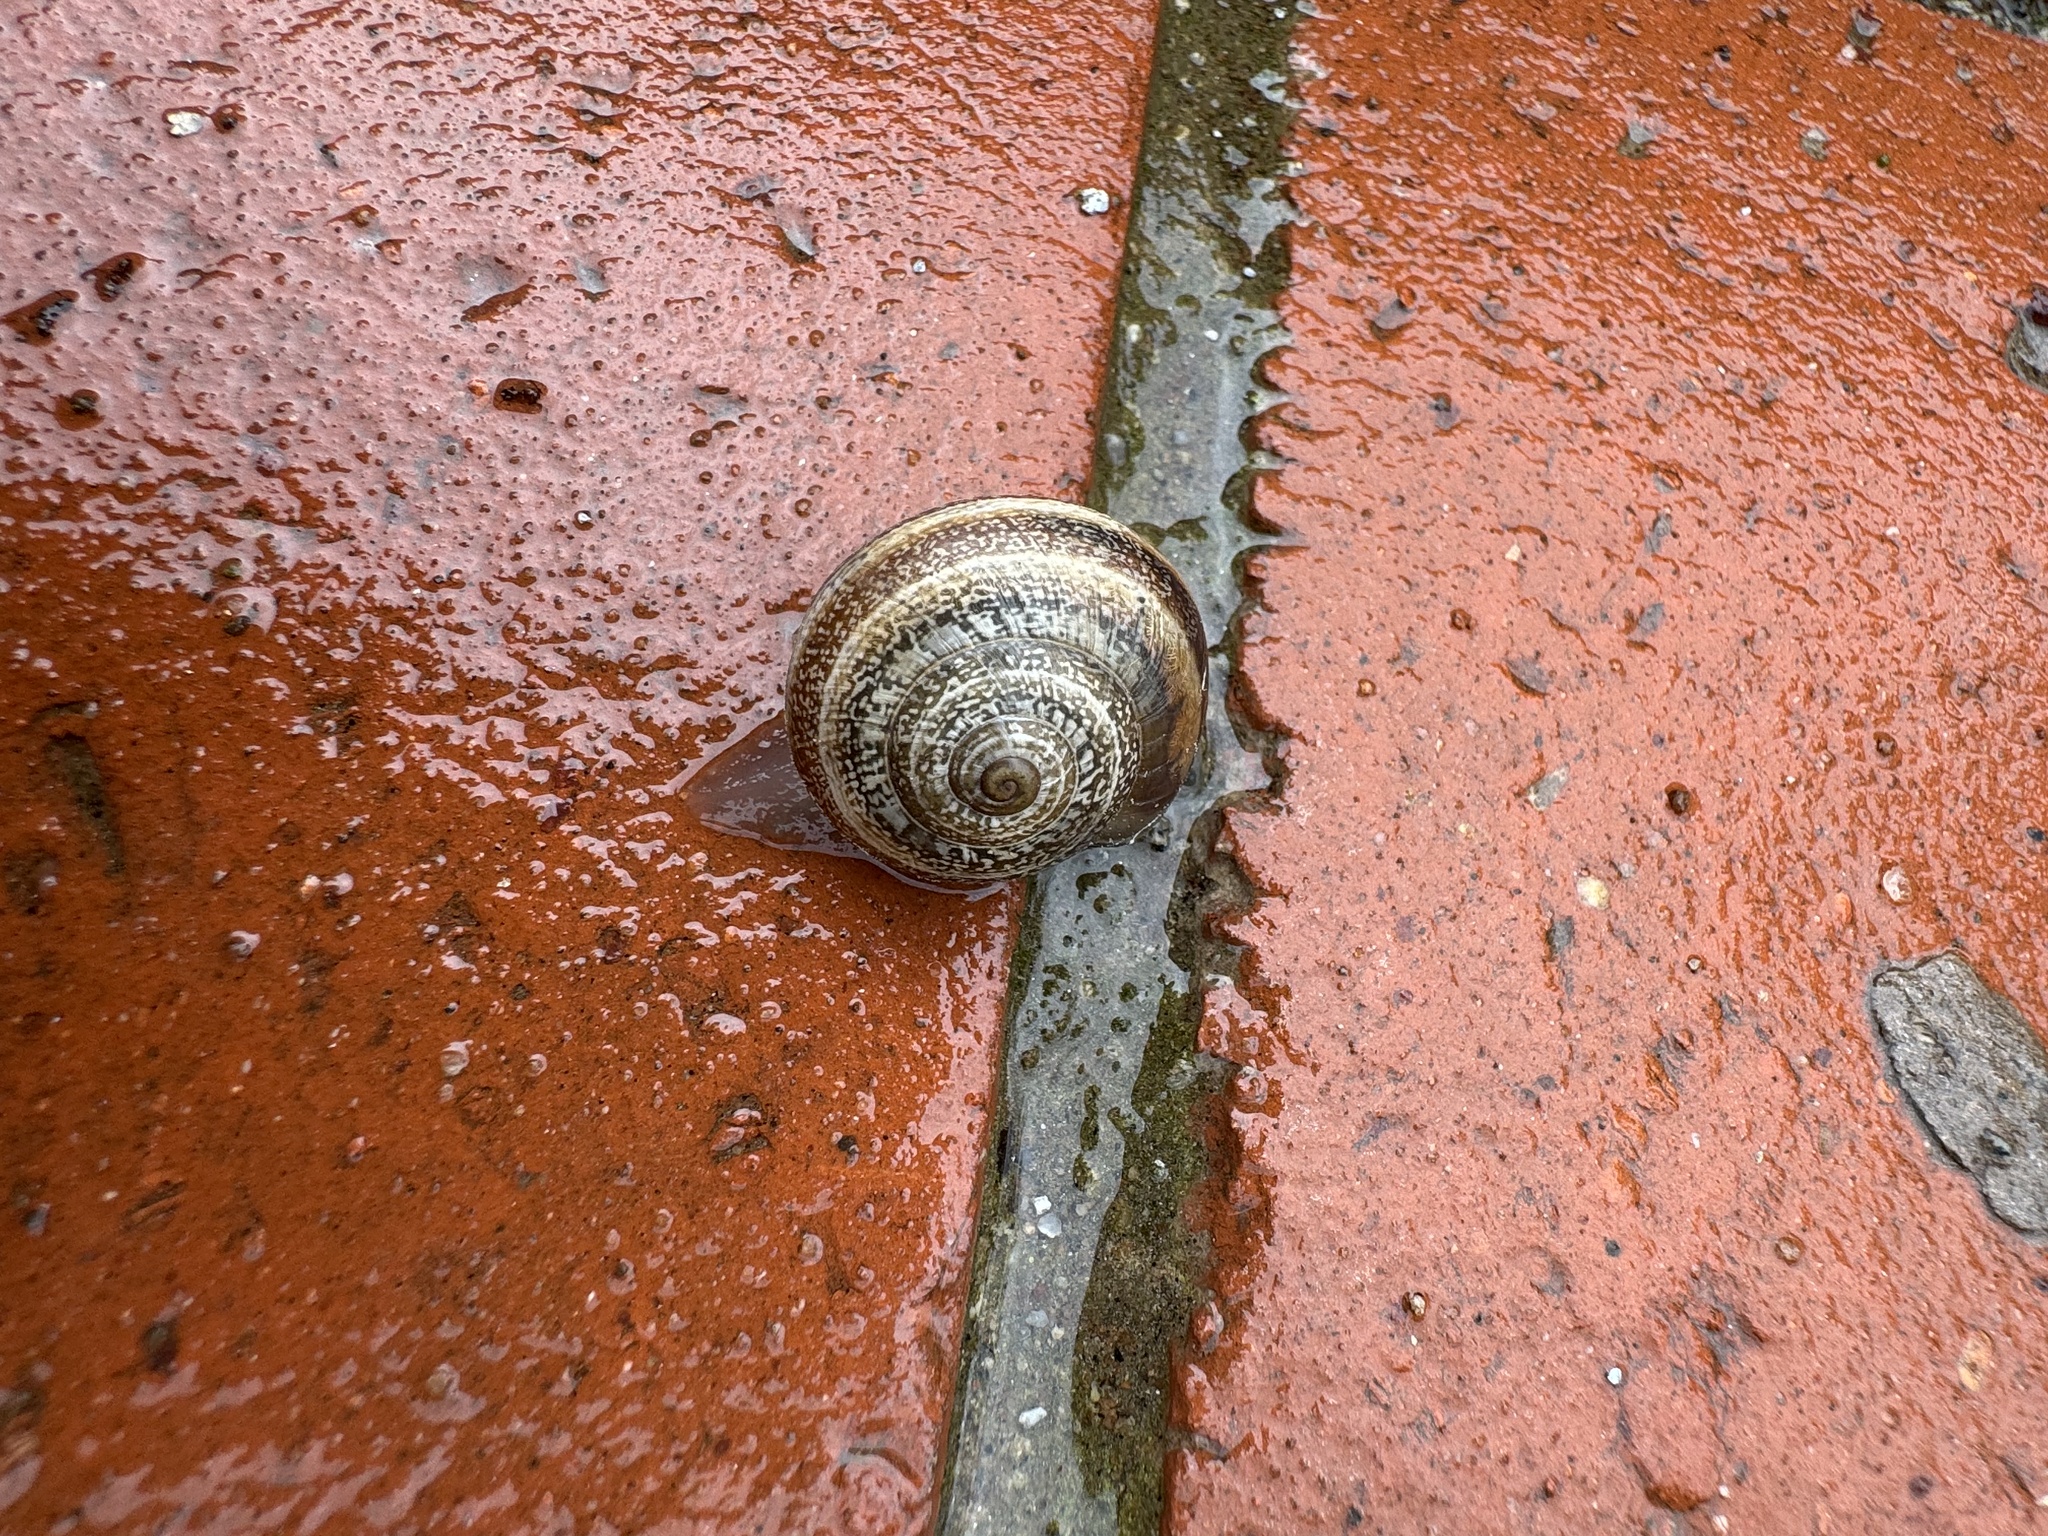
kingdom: Animalia
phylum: Mollusca
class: Gastropoda
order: Stylommatophora
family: Helicidae
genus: Otala
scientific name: Otala lactea
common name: Milk snail
